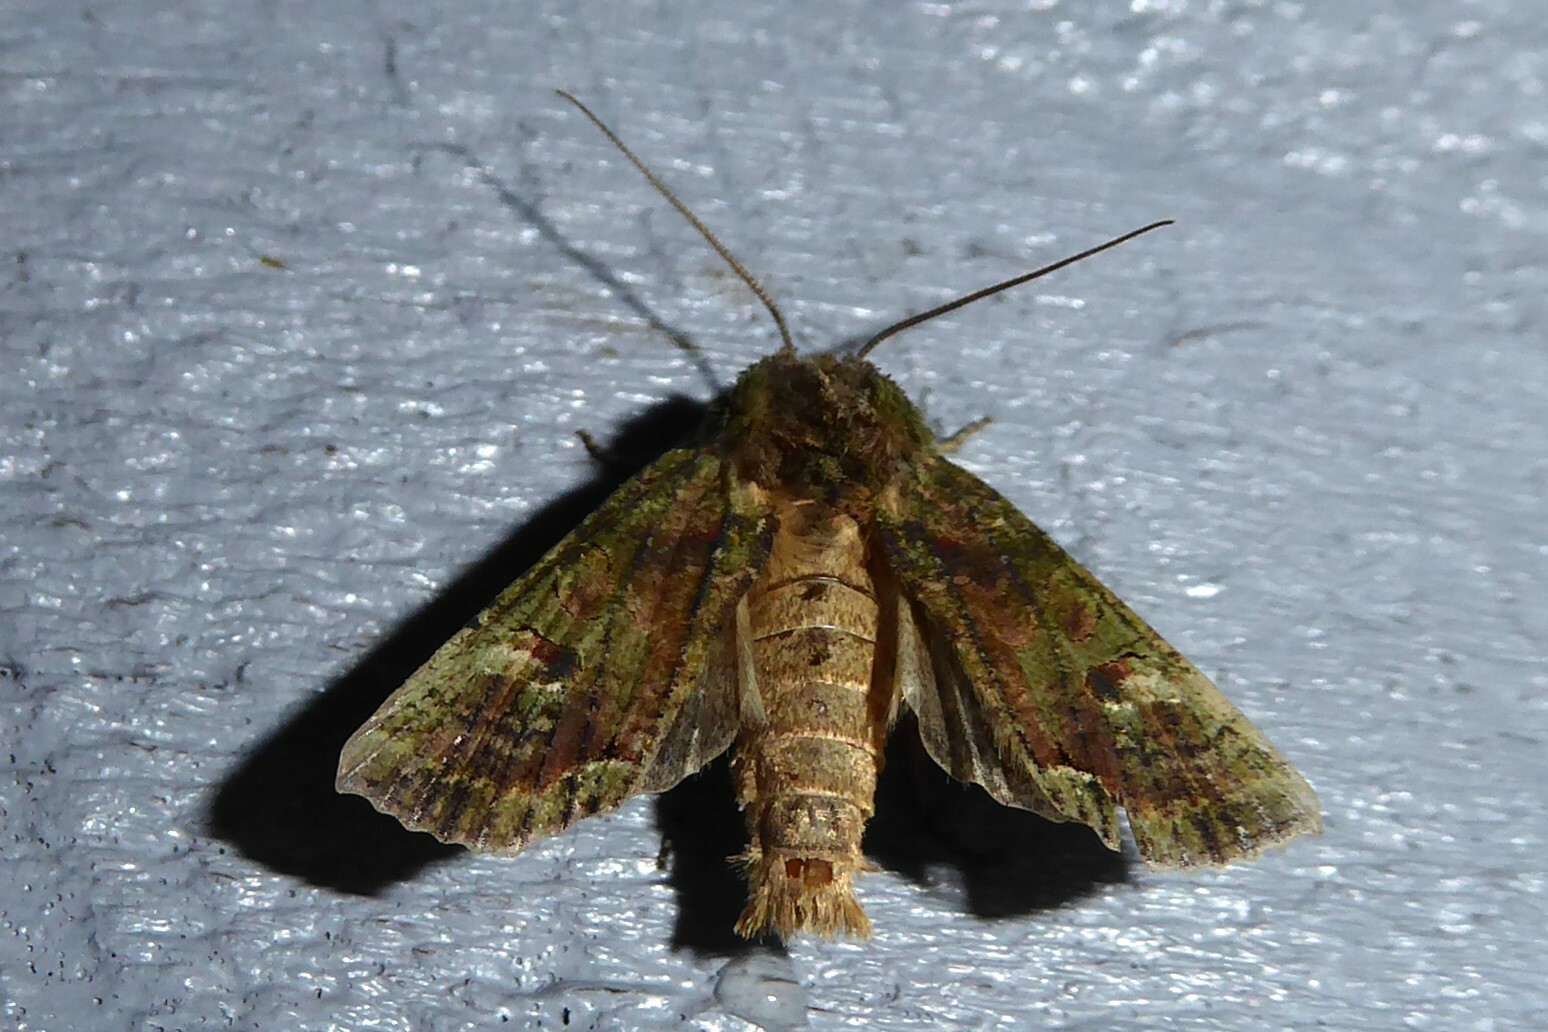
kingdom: Animalia
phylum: Arthropoda
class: Insecta
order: Lepidoptera
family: Noctuidae
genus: Meterana
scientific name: Meterana levis
